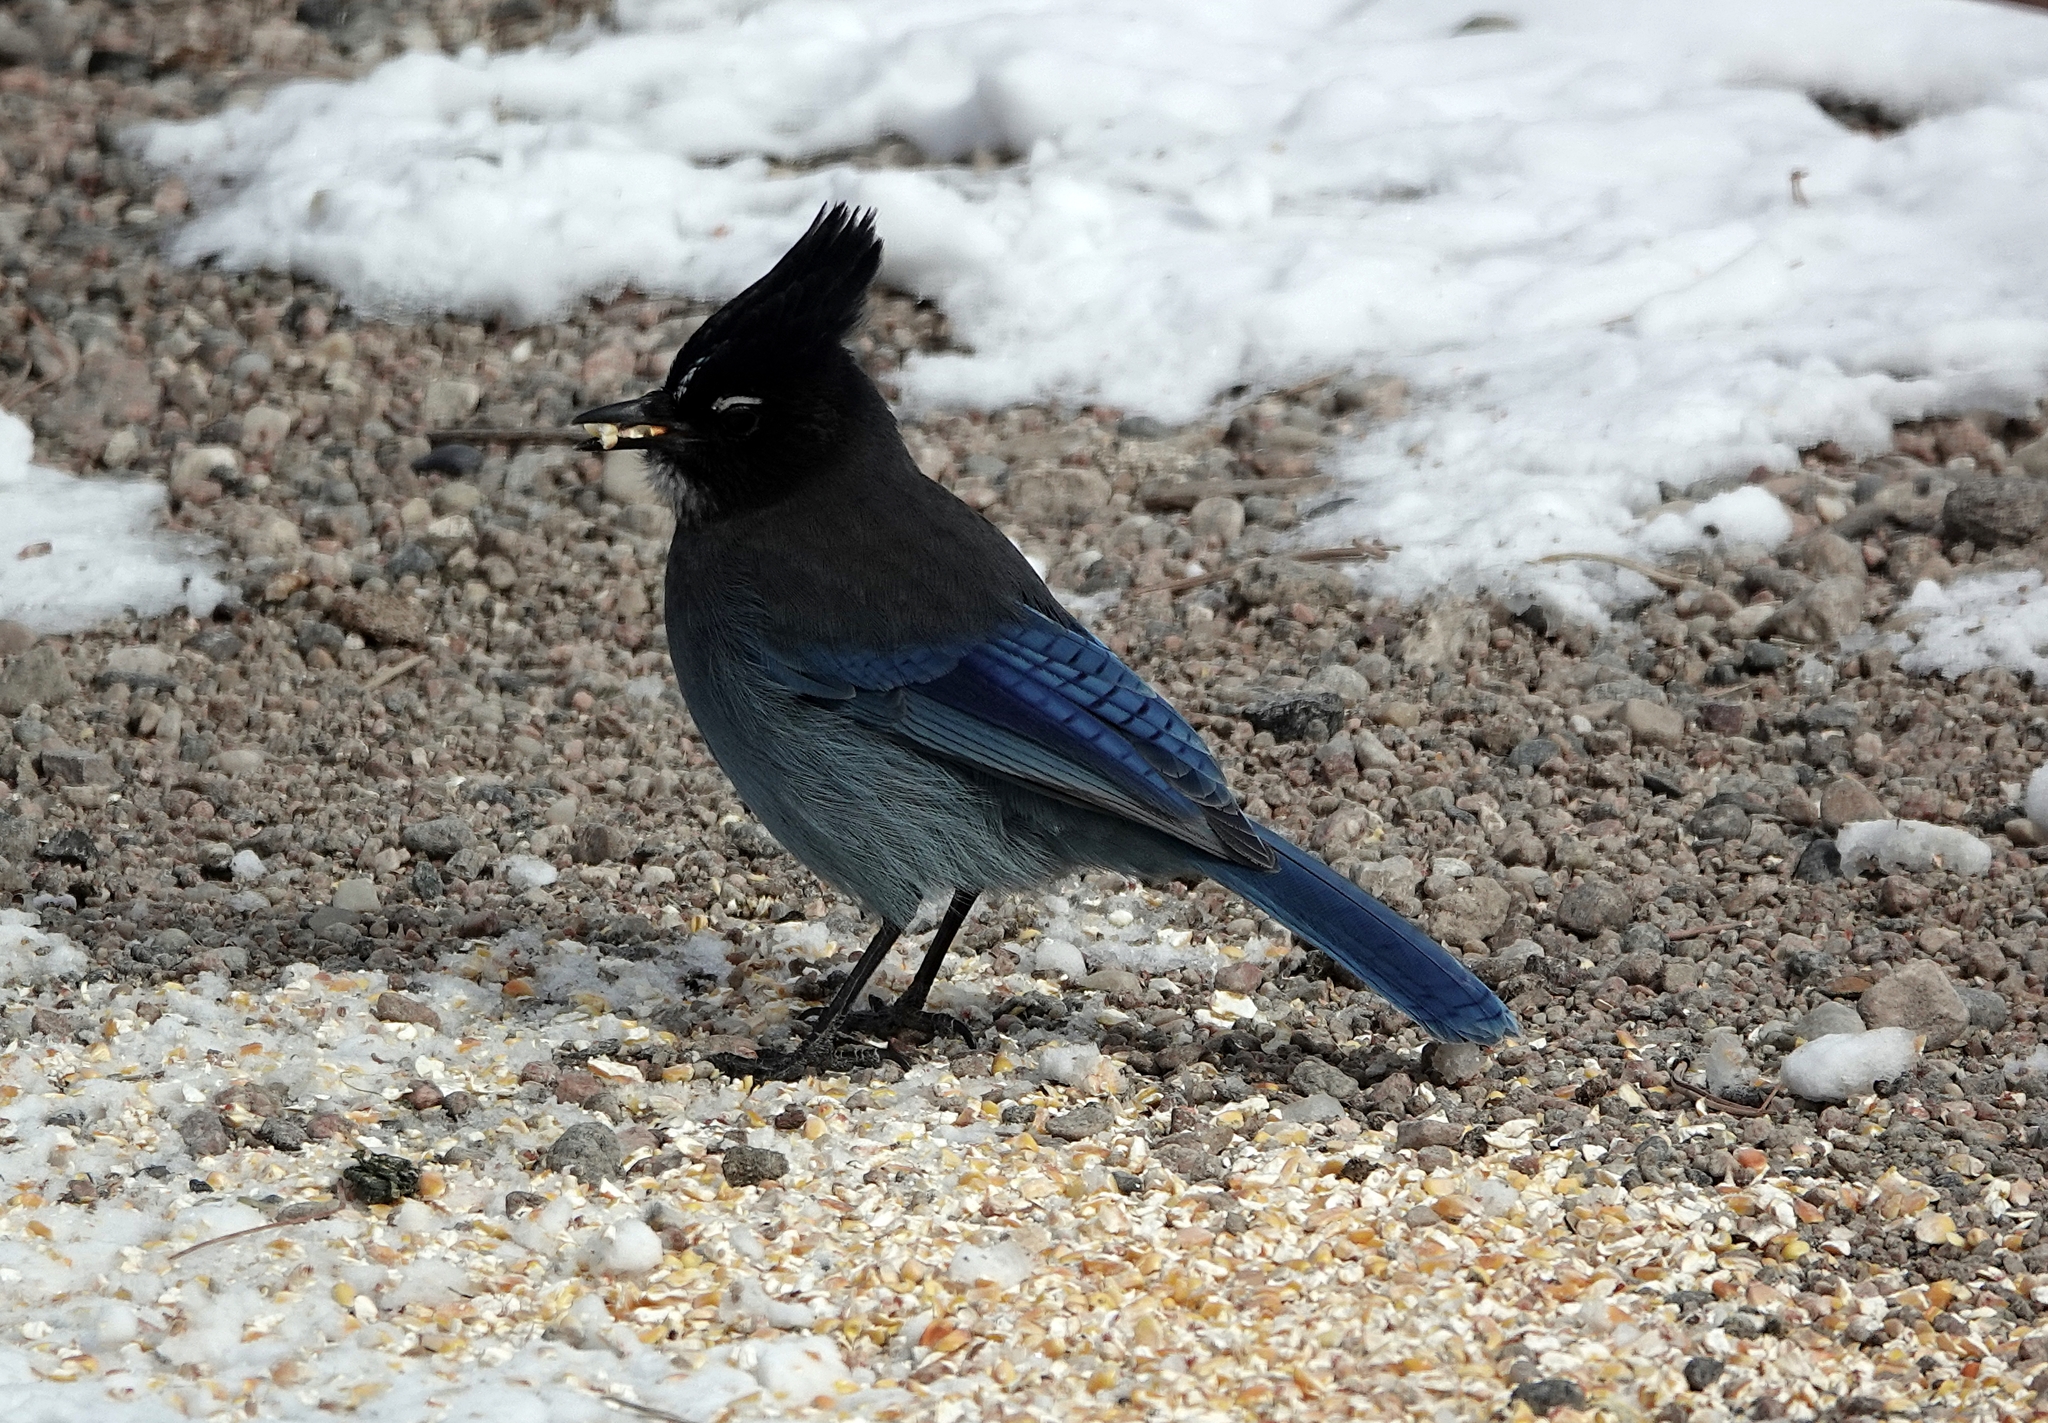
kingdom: Animalia
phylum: Chordata
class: Aves
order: Passeriformes
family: Corvidae
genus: Cyanocitta
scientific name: Cyanocitta stelleri
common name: Steller's jay
